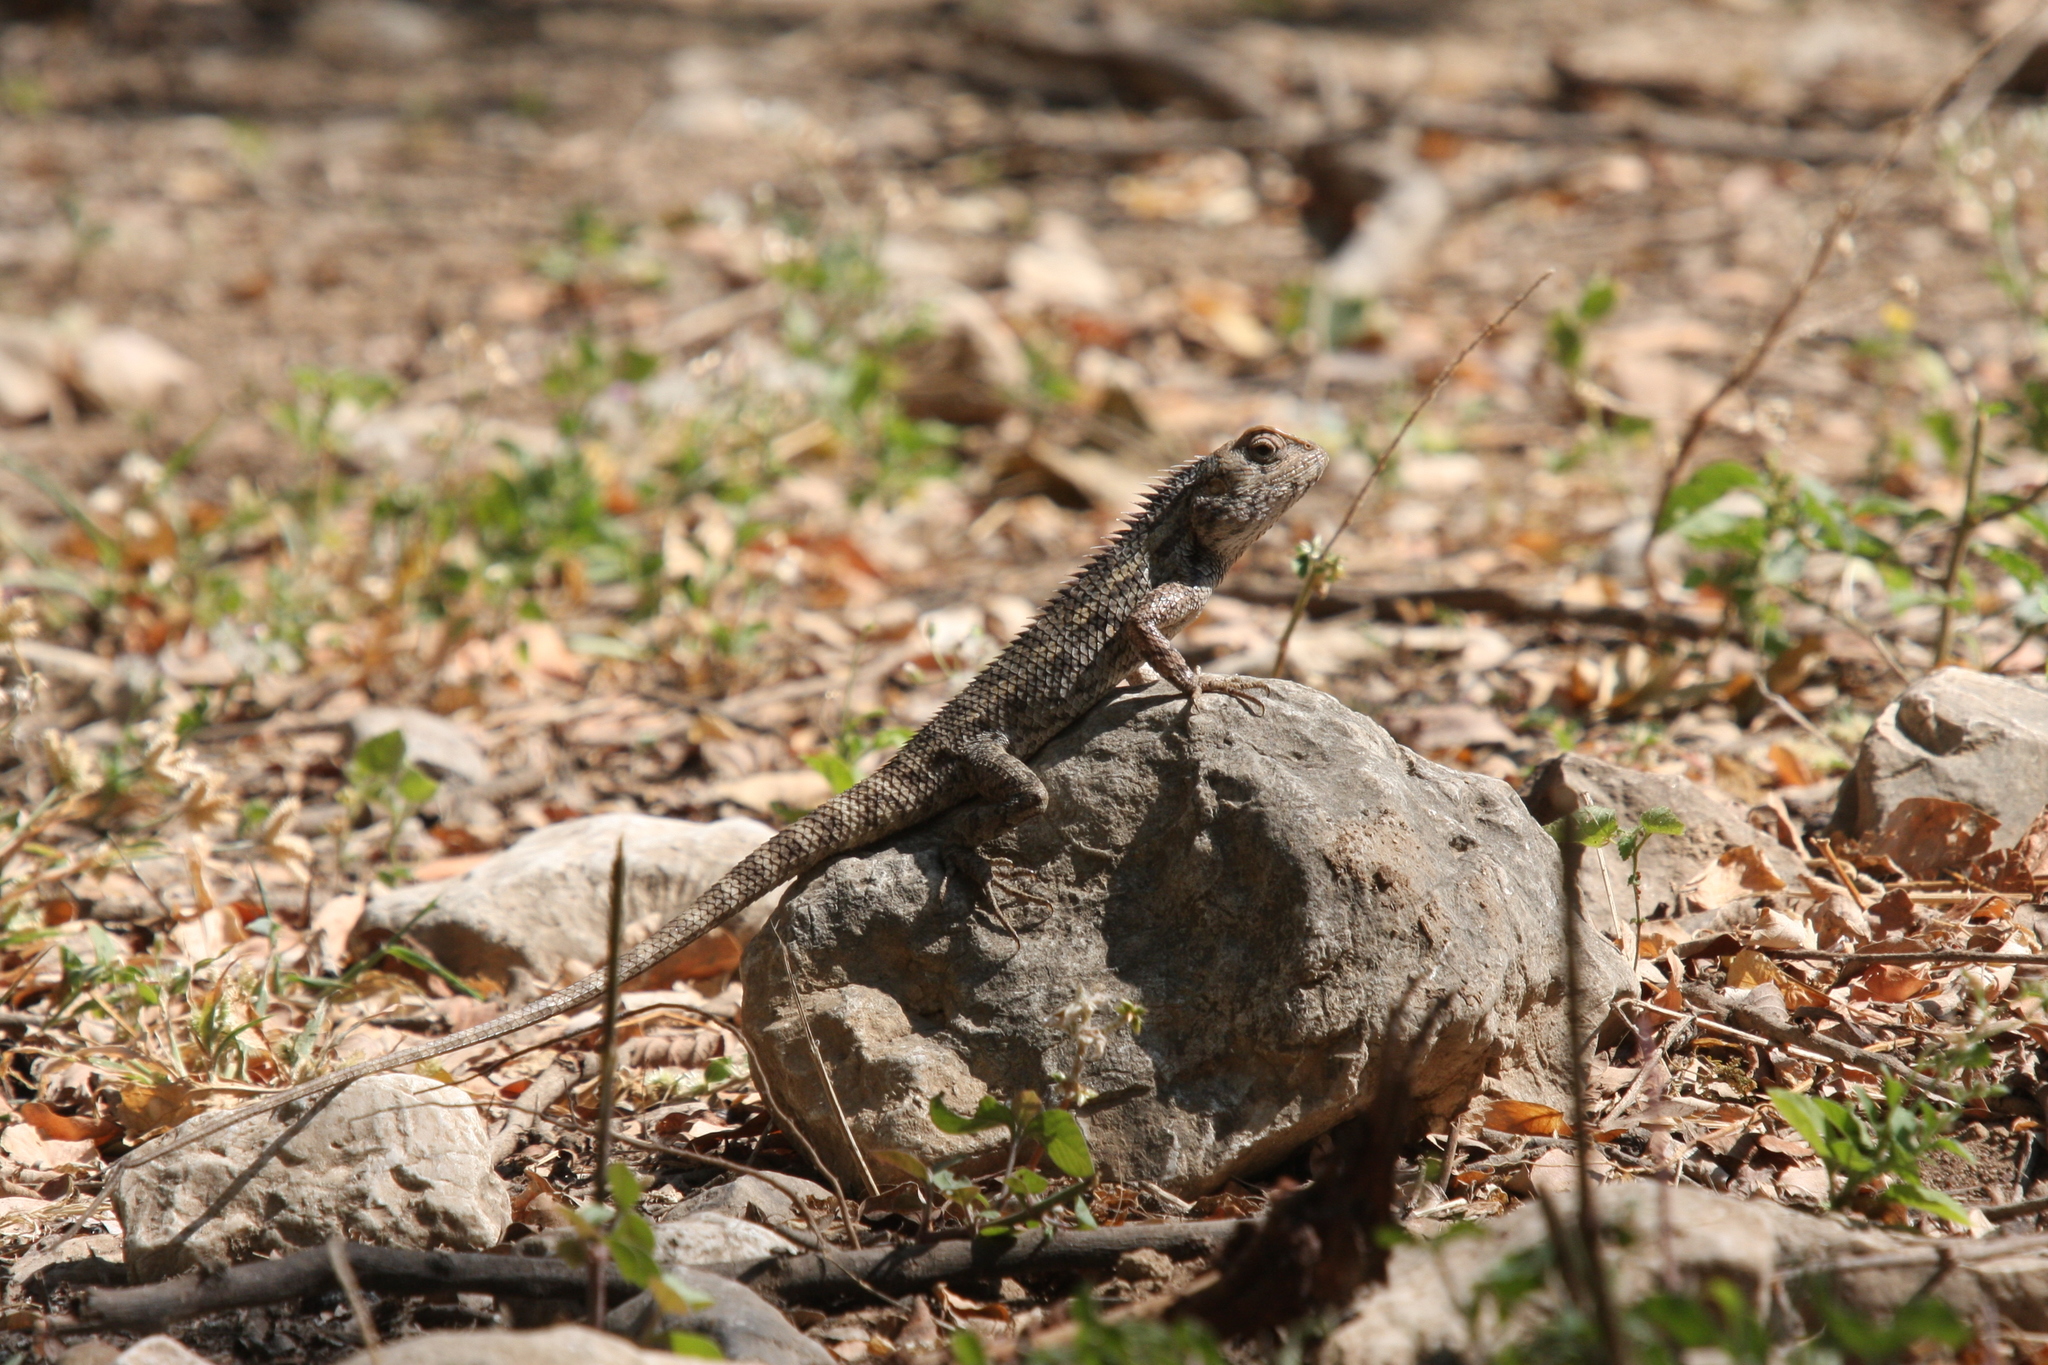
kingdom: Animalia
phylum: Chordata
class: Squamata
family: Agamidae
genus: Calotes
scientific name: Calotes versicolor
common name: Oriental garden lizard
